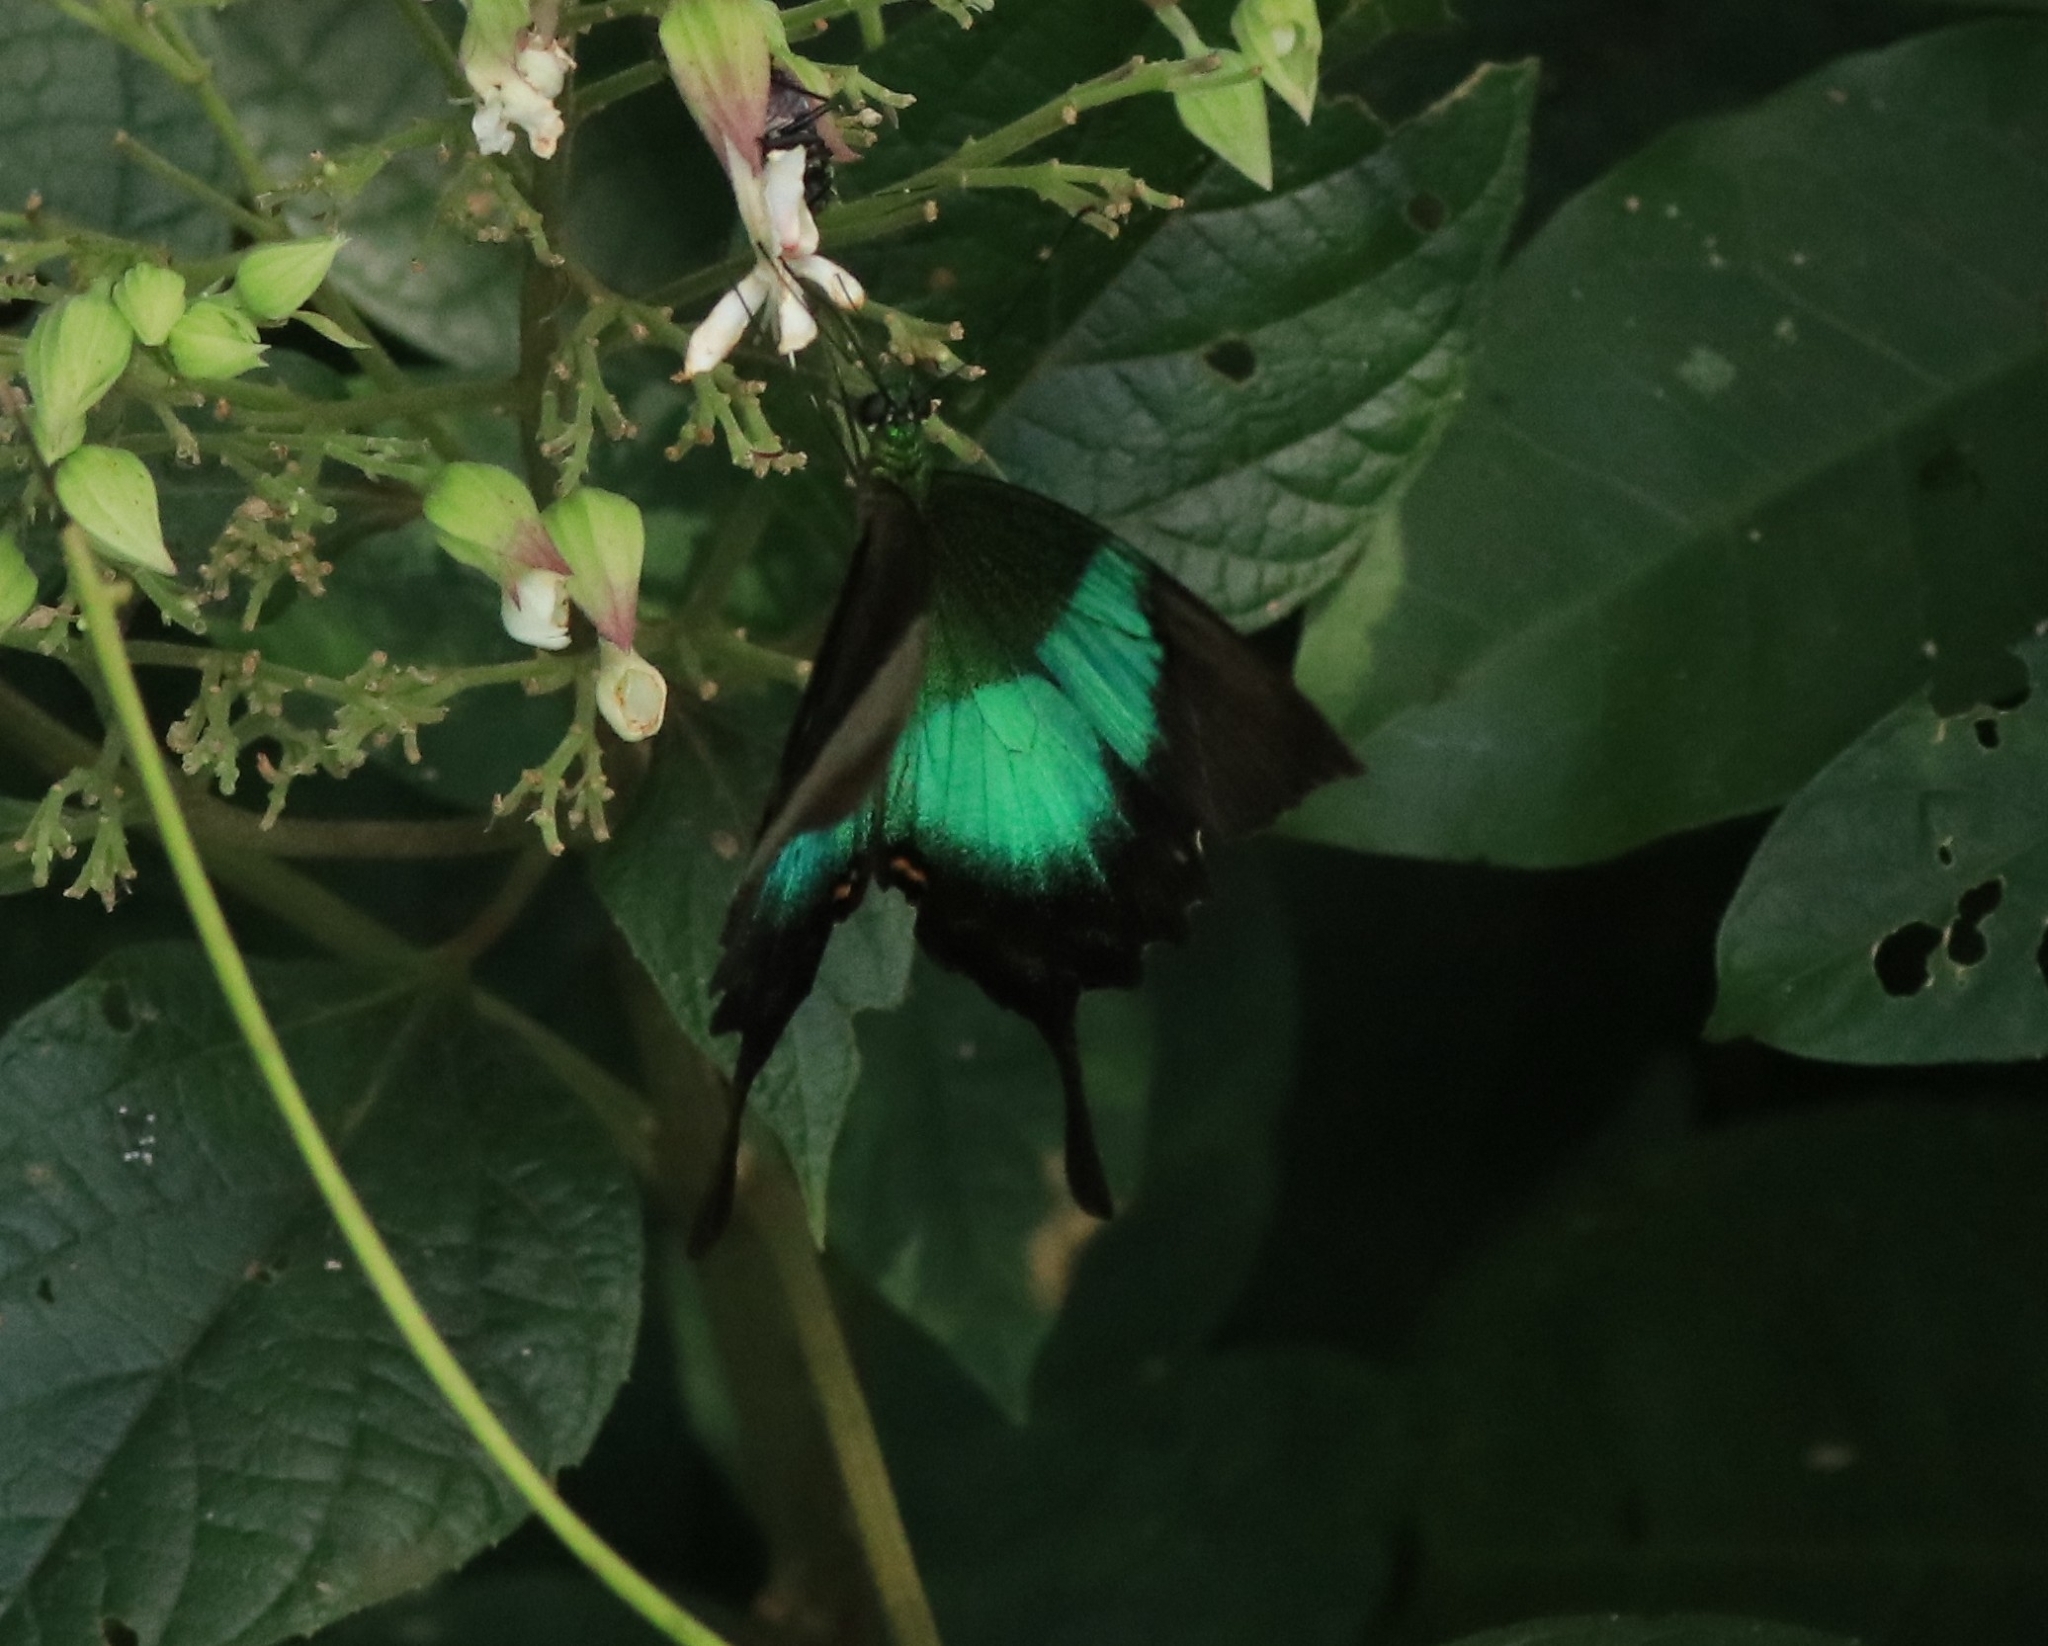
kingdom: Animalia
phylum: Arthropoda
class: Insecta
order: Lepidoptera
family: Papilionidae
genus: Papilio
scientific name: Papilio buddha
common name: Malabar banded peacock
